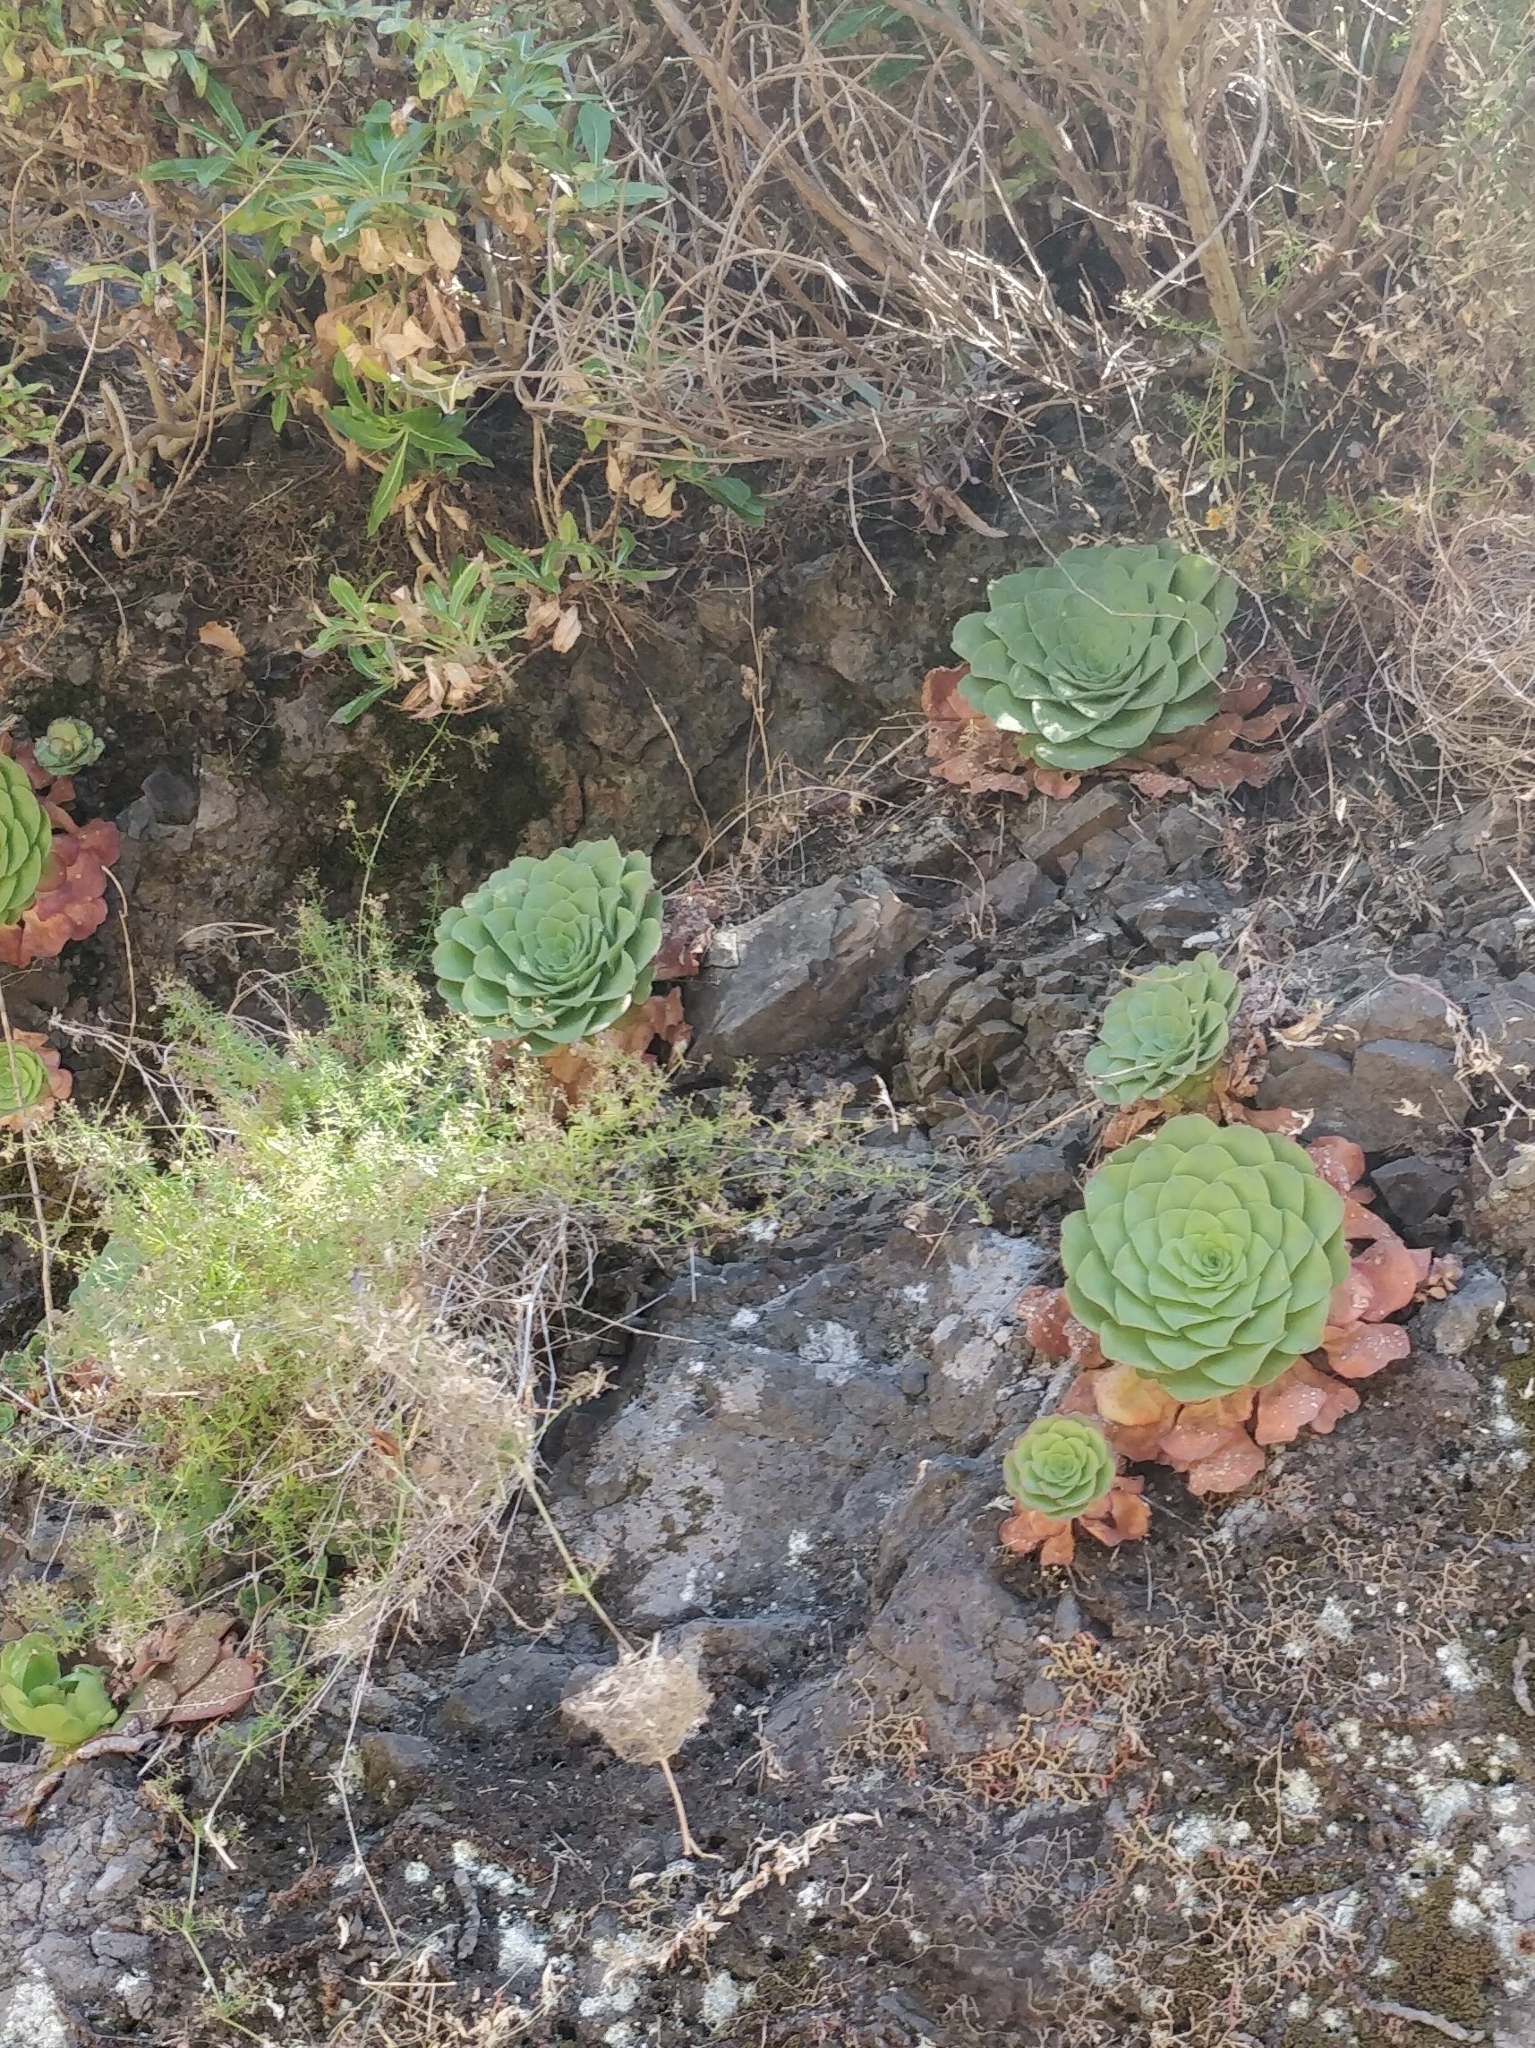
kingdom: Plantae
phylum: Tracheophyta
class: Magnoliopsida
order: Saxifragales
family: Crassulaceae
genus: Aeonium
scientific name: Aeonium glandulosum
